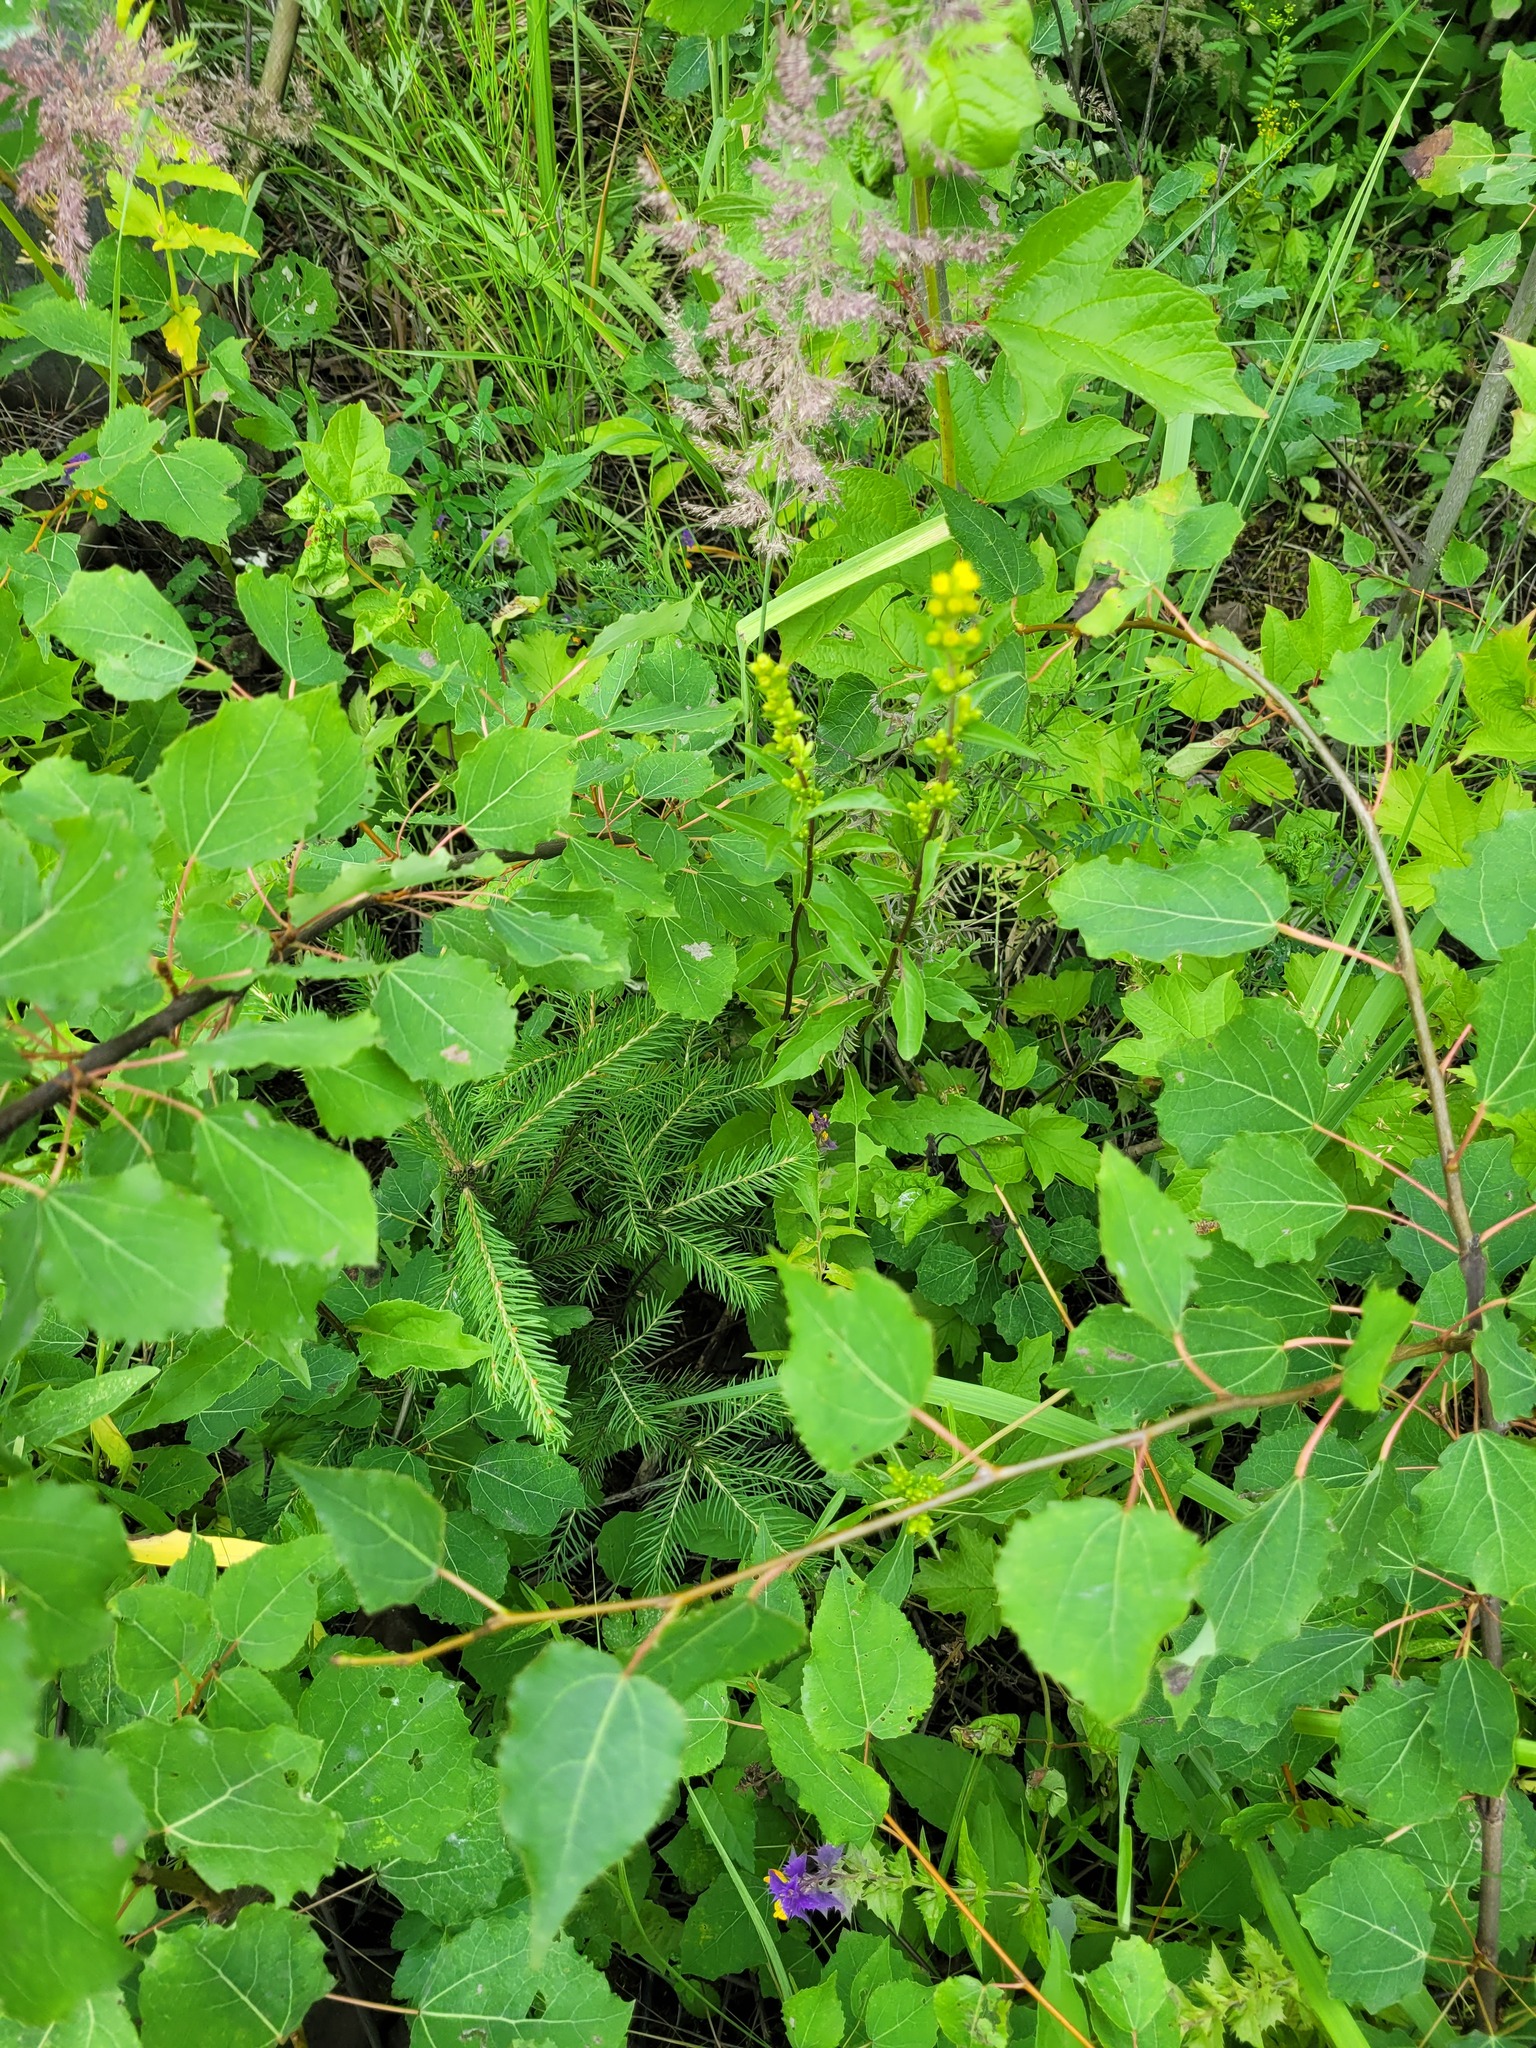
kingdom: Plantae
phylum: Tracheophyta
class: Pinopsida
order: Pinales
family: Pinaceae
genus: Picea
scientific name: Picea abies
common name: Norway spruce
